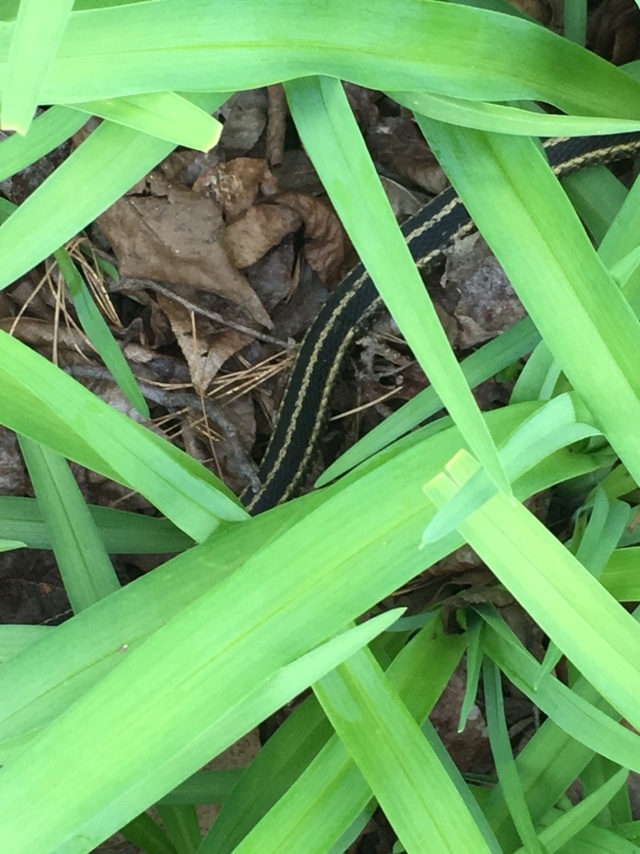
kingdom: Animalia
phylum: Chordata
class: Squamata
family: Colubridae
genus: Thamnophis
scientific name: Thamnophis sirtalis
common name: Common garter snake
